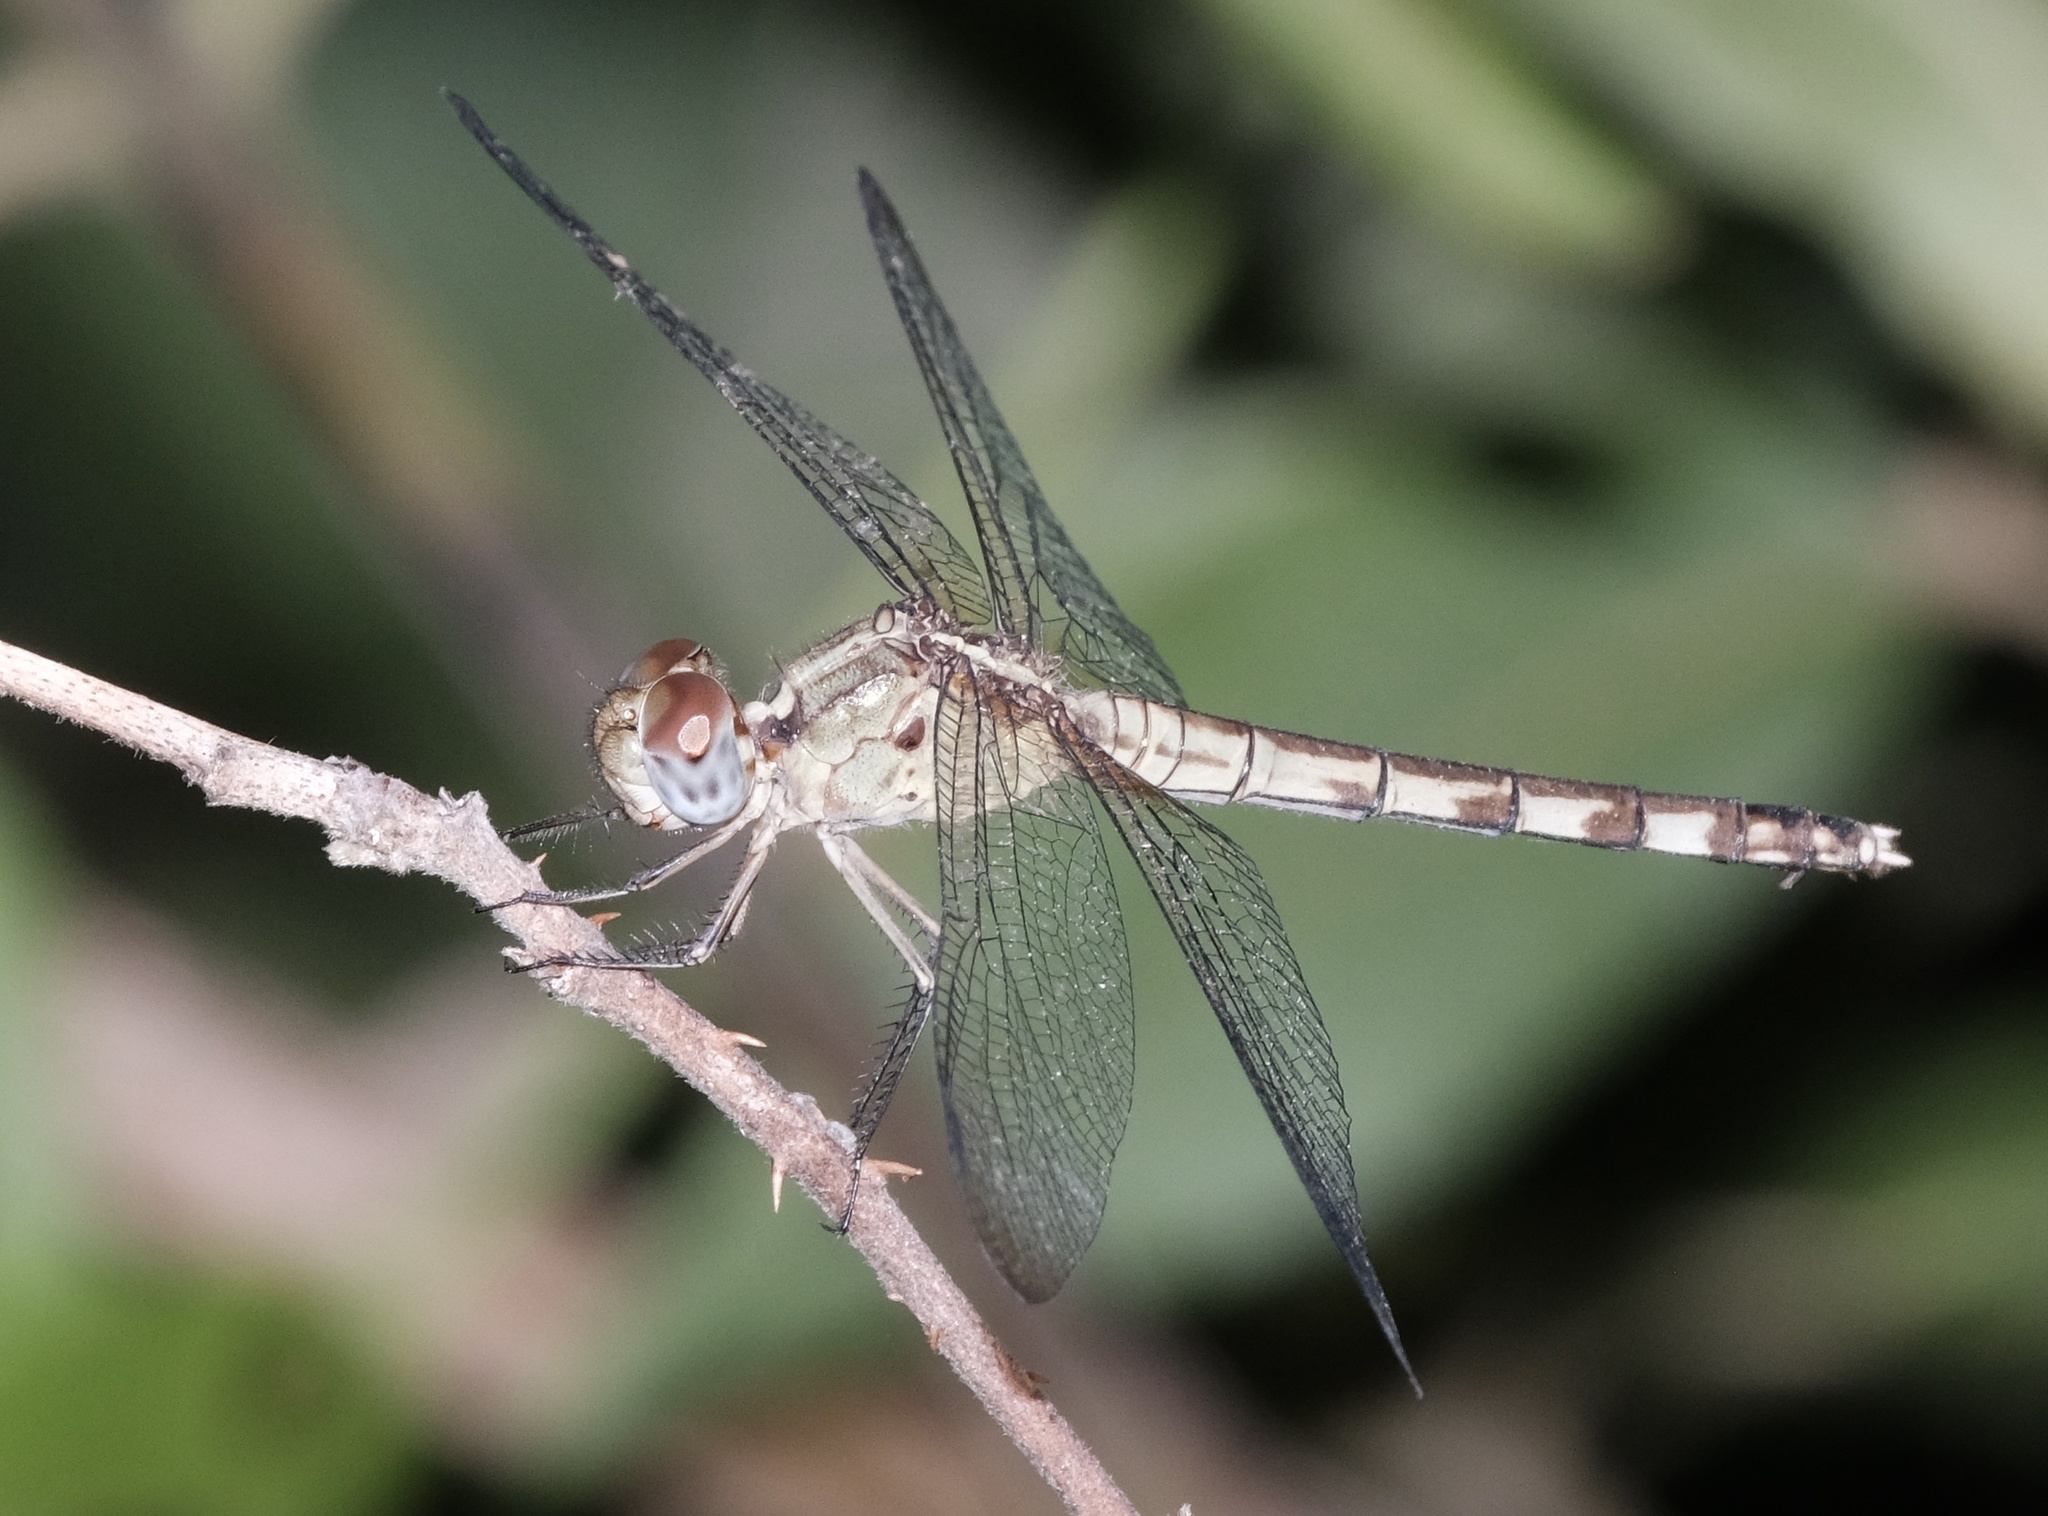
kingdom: Animalia
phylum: Arthropoda
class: Insecta
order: Odonata
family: Libellulidae
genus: Erythrodiplax
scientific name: Erythrodiplax umbrata
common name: Band-winged dragonlet
